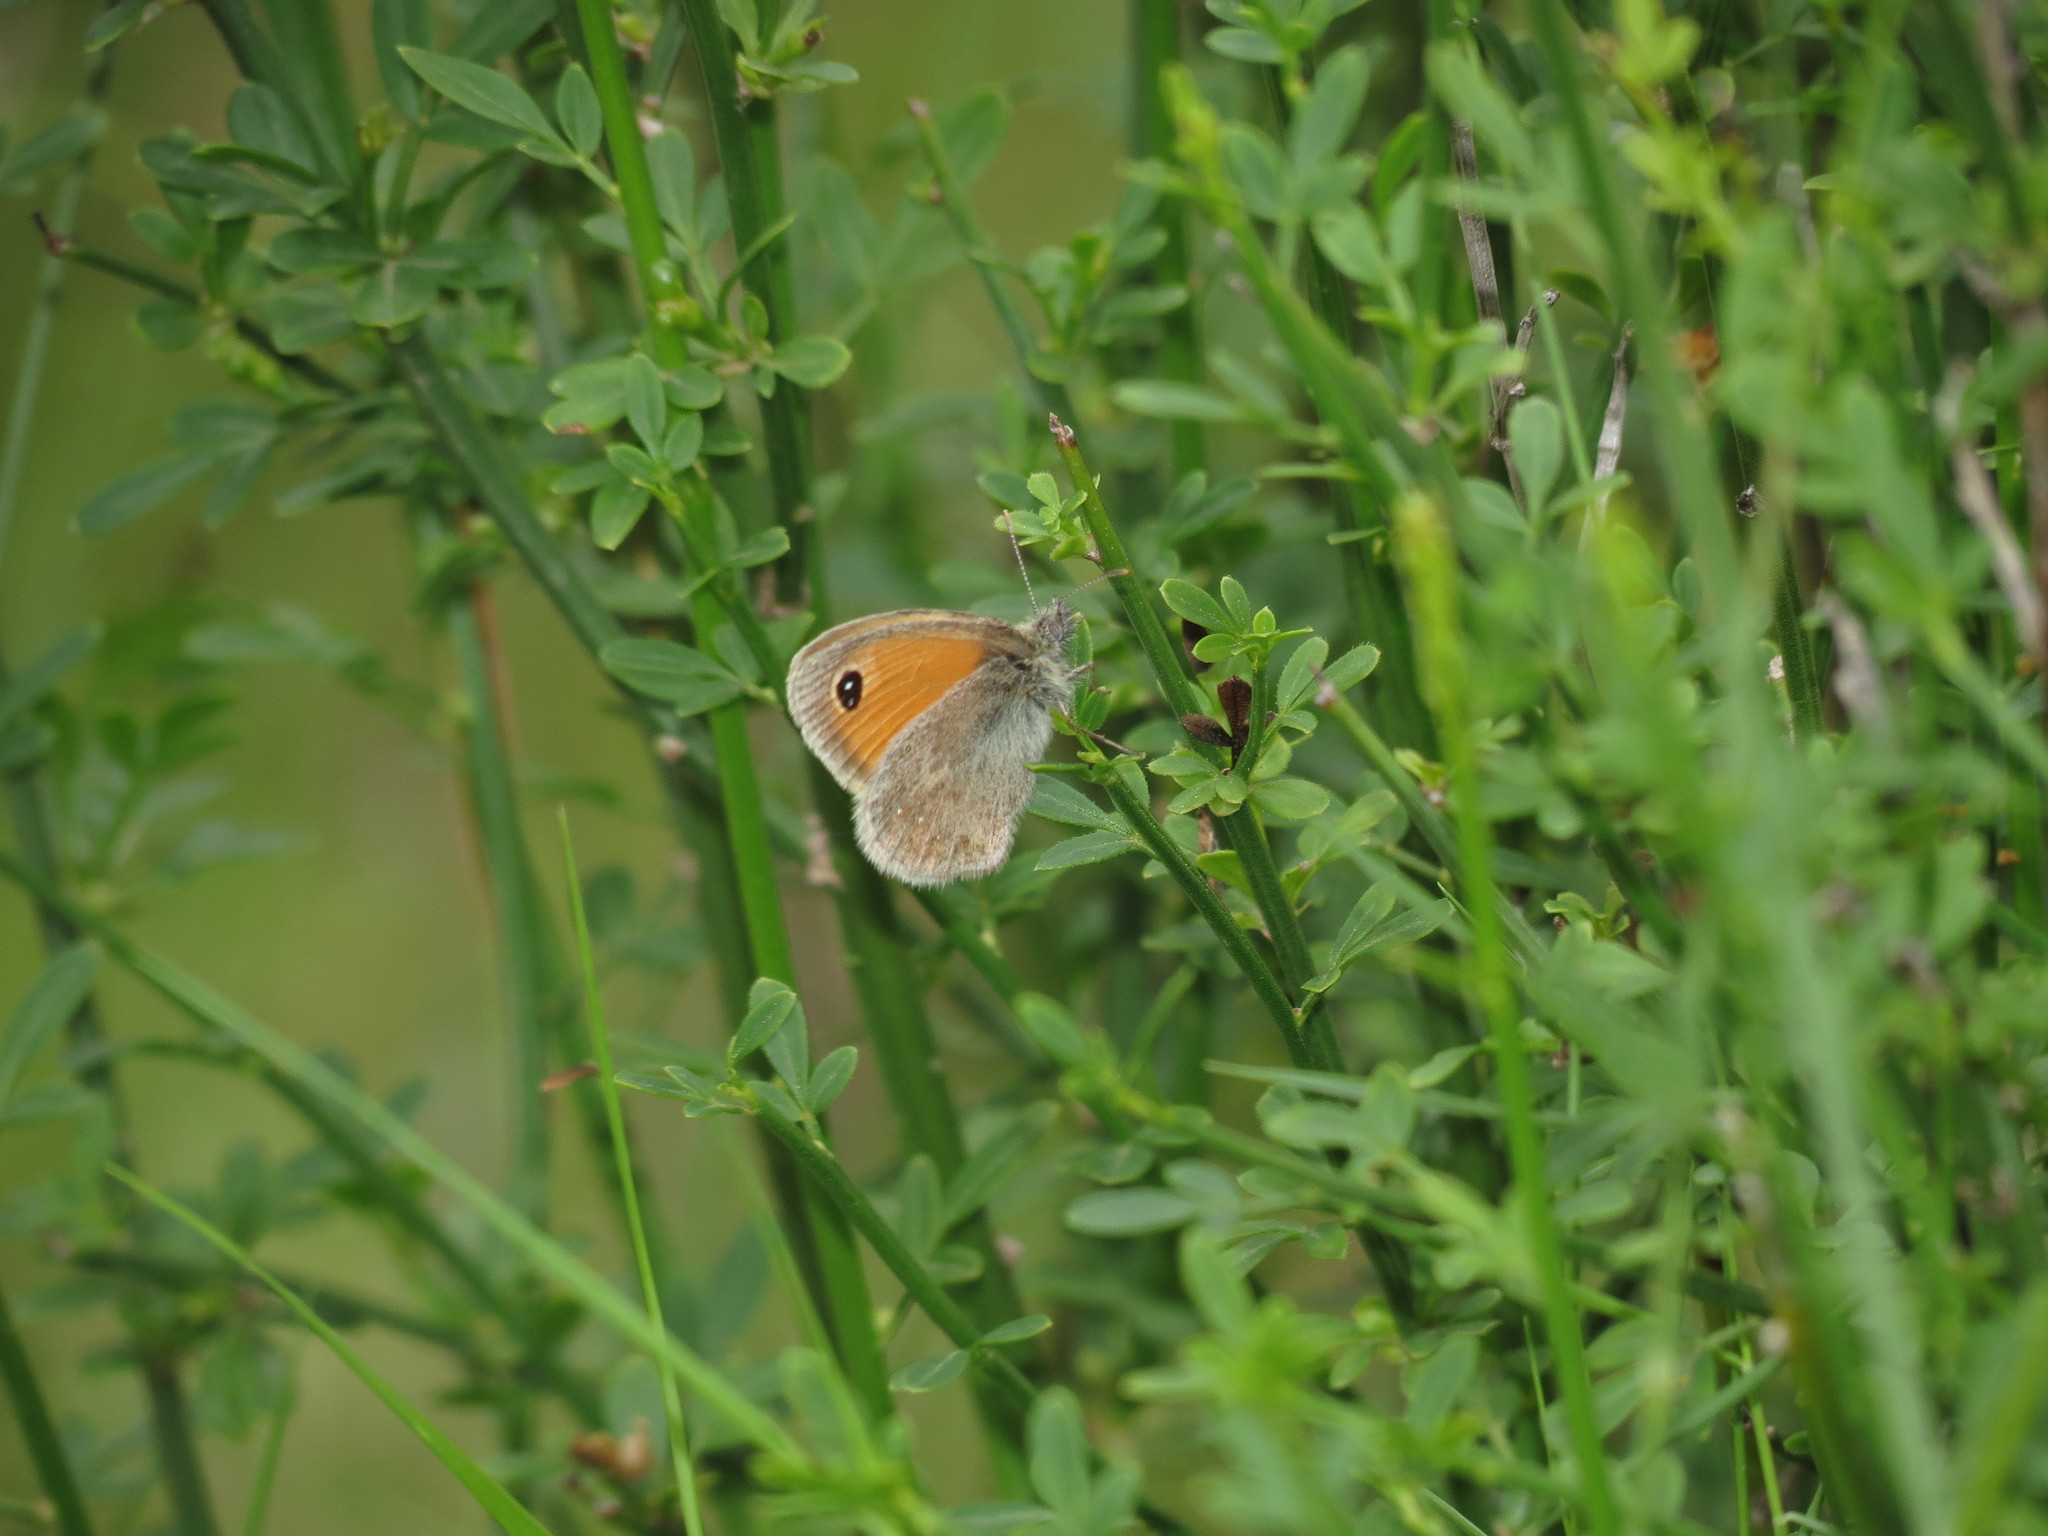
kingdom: Animalia
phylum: Arthropoda
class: Insecta
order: Lepidoptera
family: Nymphalidae
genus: Coenonympha
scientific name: Coenonympha pamphilus
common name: Small heath
